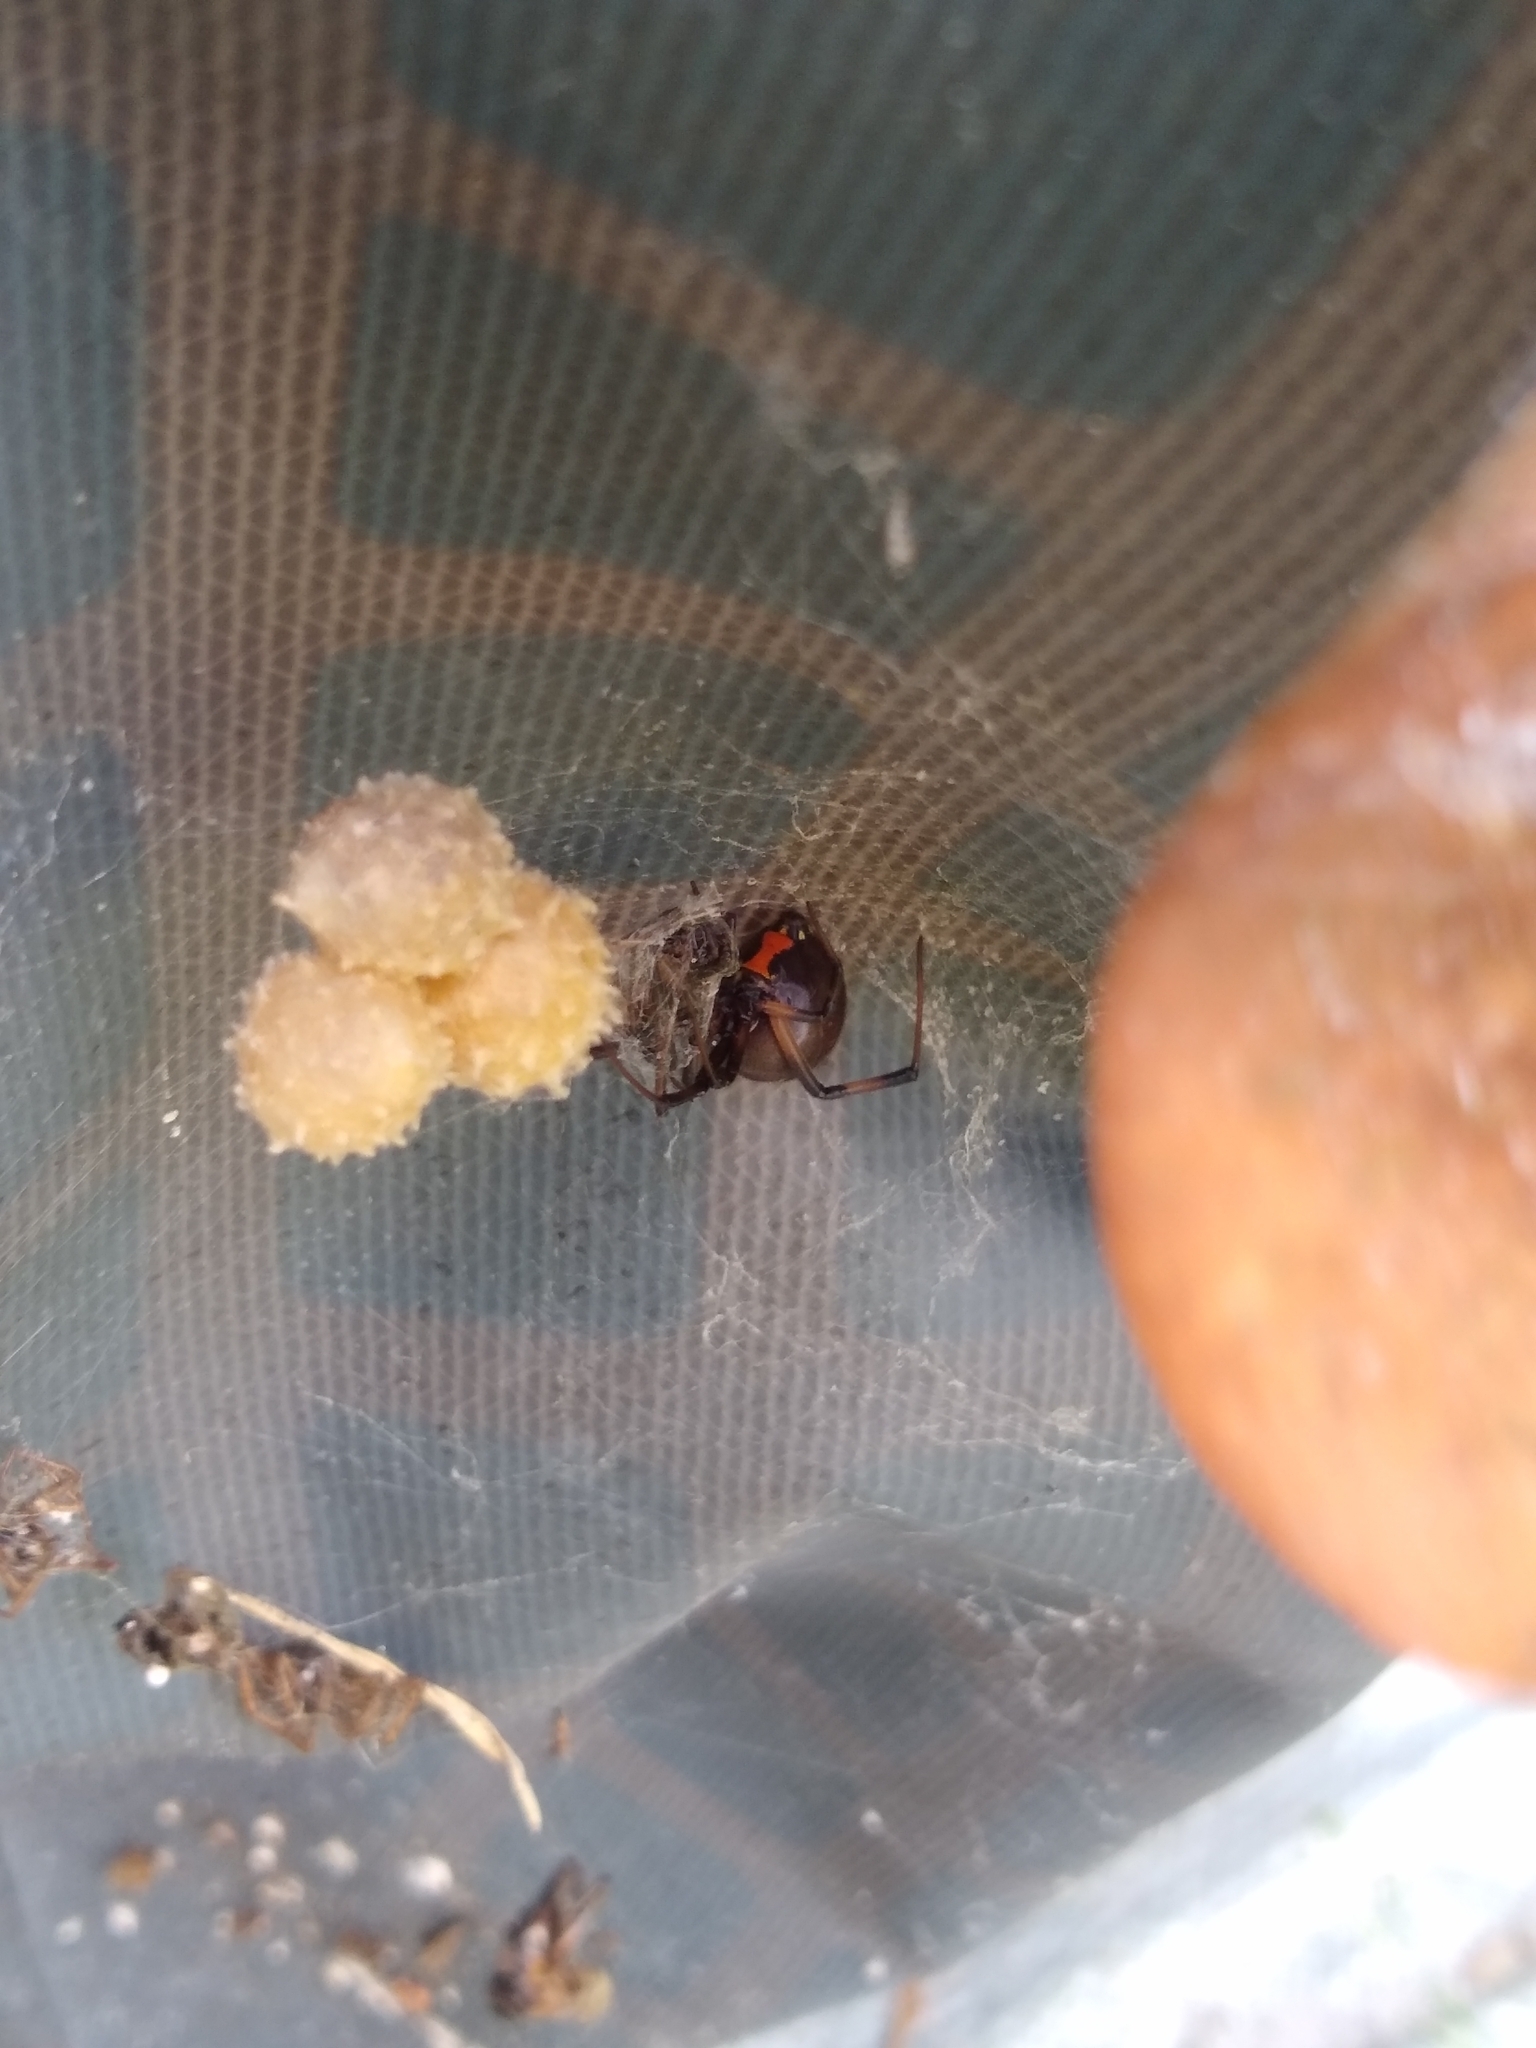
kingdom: Animalia
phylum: Arthropoda
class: Arachnida
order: Araneae
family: Theridiidae
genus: Latrodectus
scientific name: Latrodectus geometricus
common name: Brown widow spider
